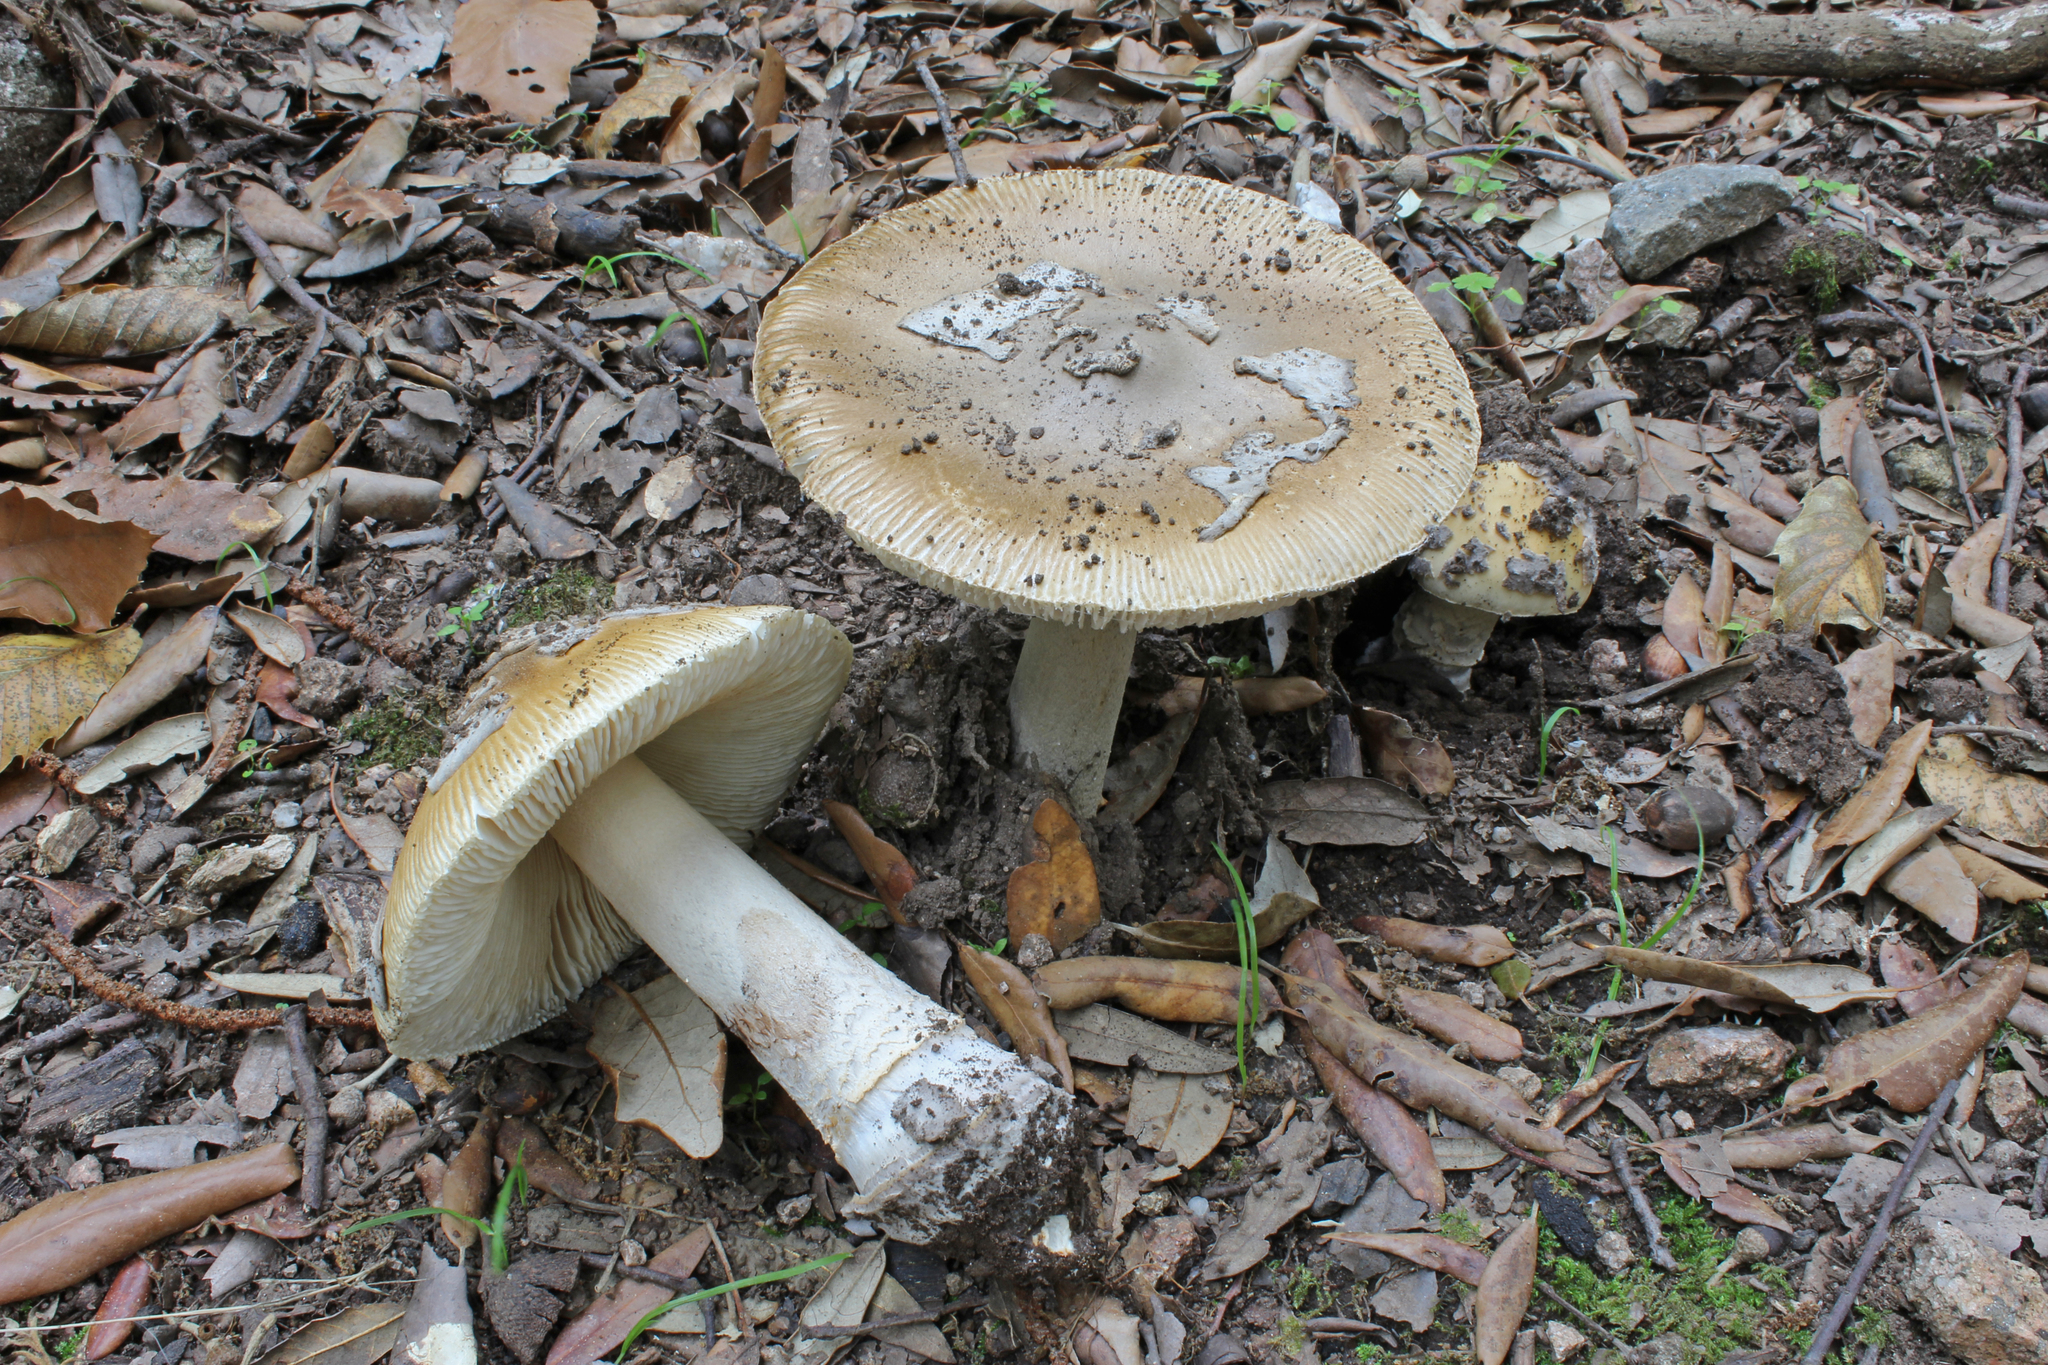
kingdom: Fungi
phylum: Basidiomycota
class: Agaricomycetes
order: Agaricales
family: Amanitaceae
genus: Amanita
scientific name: Amanita ceciliae
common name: Snakeskin grisette
